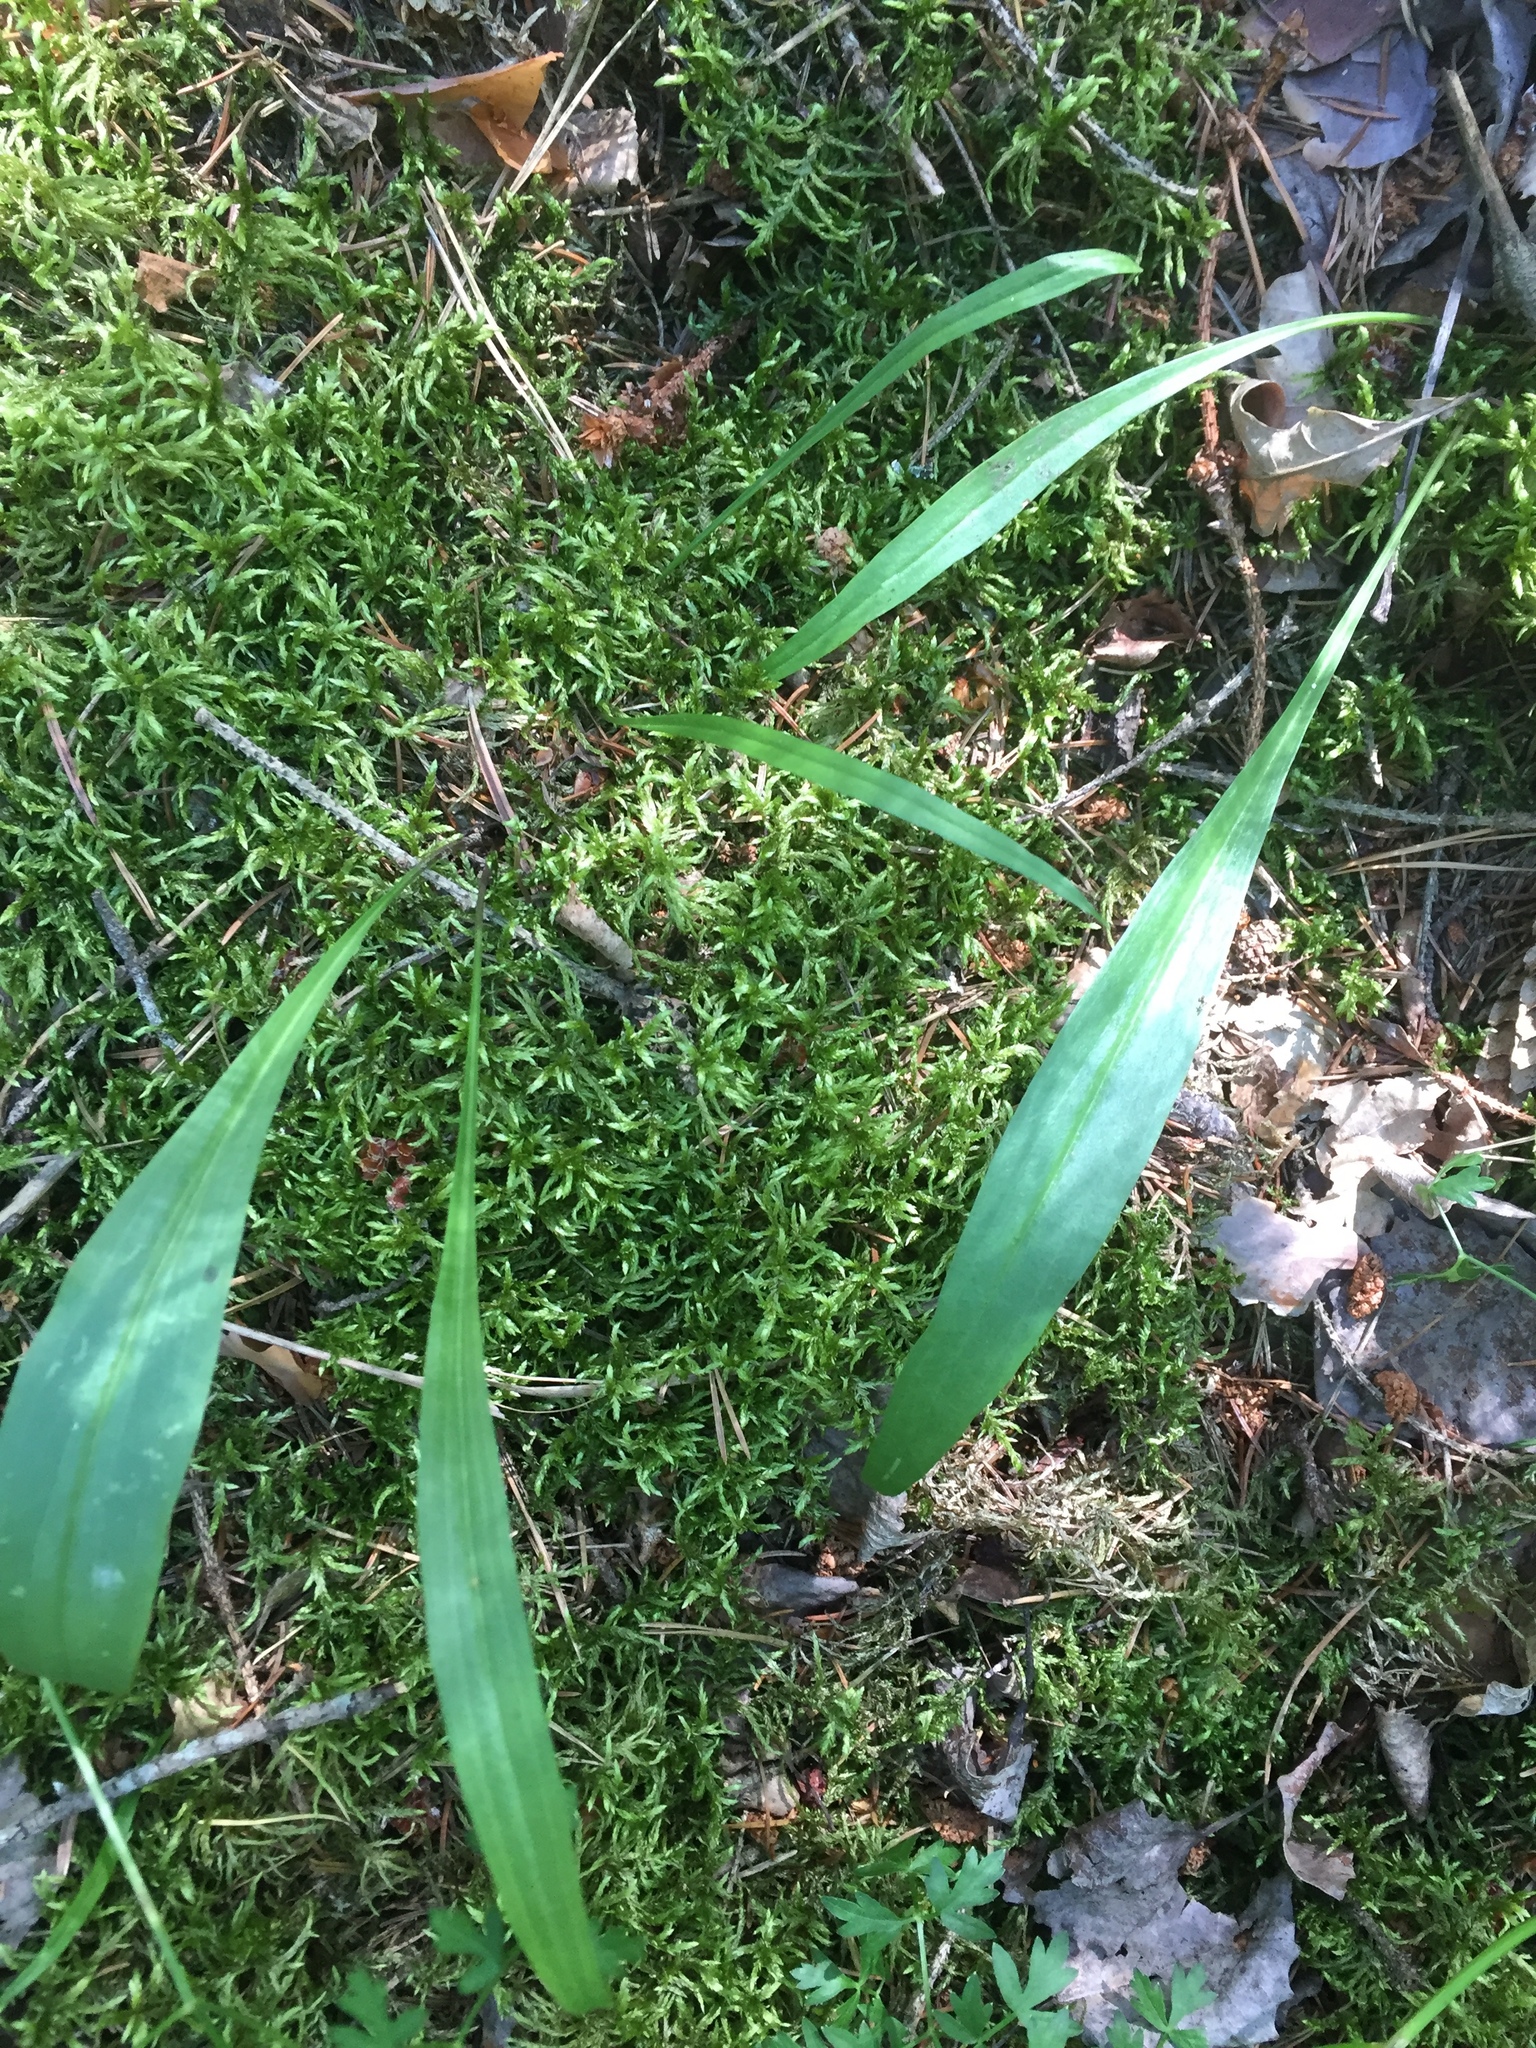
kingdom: Plantae
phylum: Tracheophyta
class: Magnoliopsida
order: Asterales
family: Asteraceae
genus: Scorzonera
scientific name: Scorzonera humilis
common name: Viper's-grass
